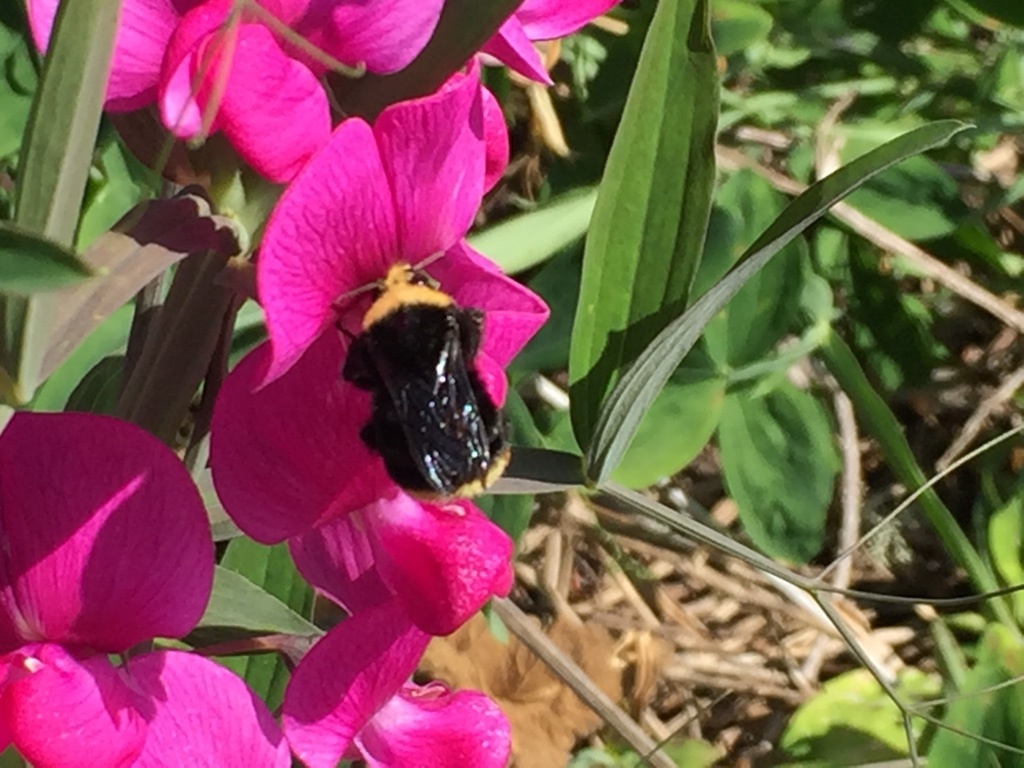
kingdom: Animalia
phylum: Arthropoda
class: Insecta
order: Hymenoptera
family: Apidae
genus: Bombus
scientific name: Bombus vosnesenskii
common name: Vosnesensky bumble bee
